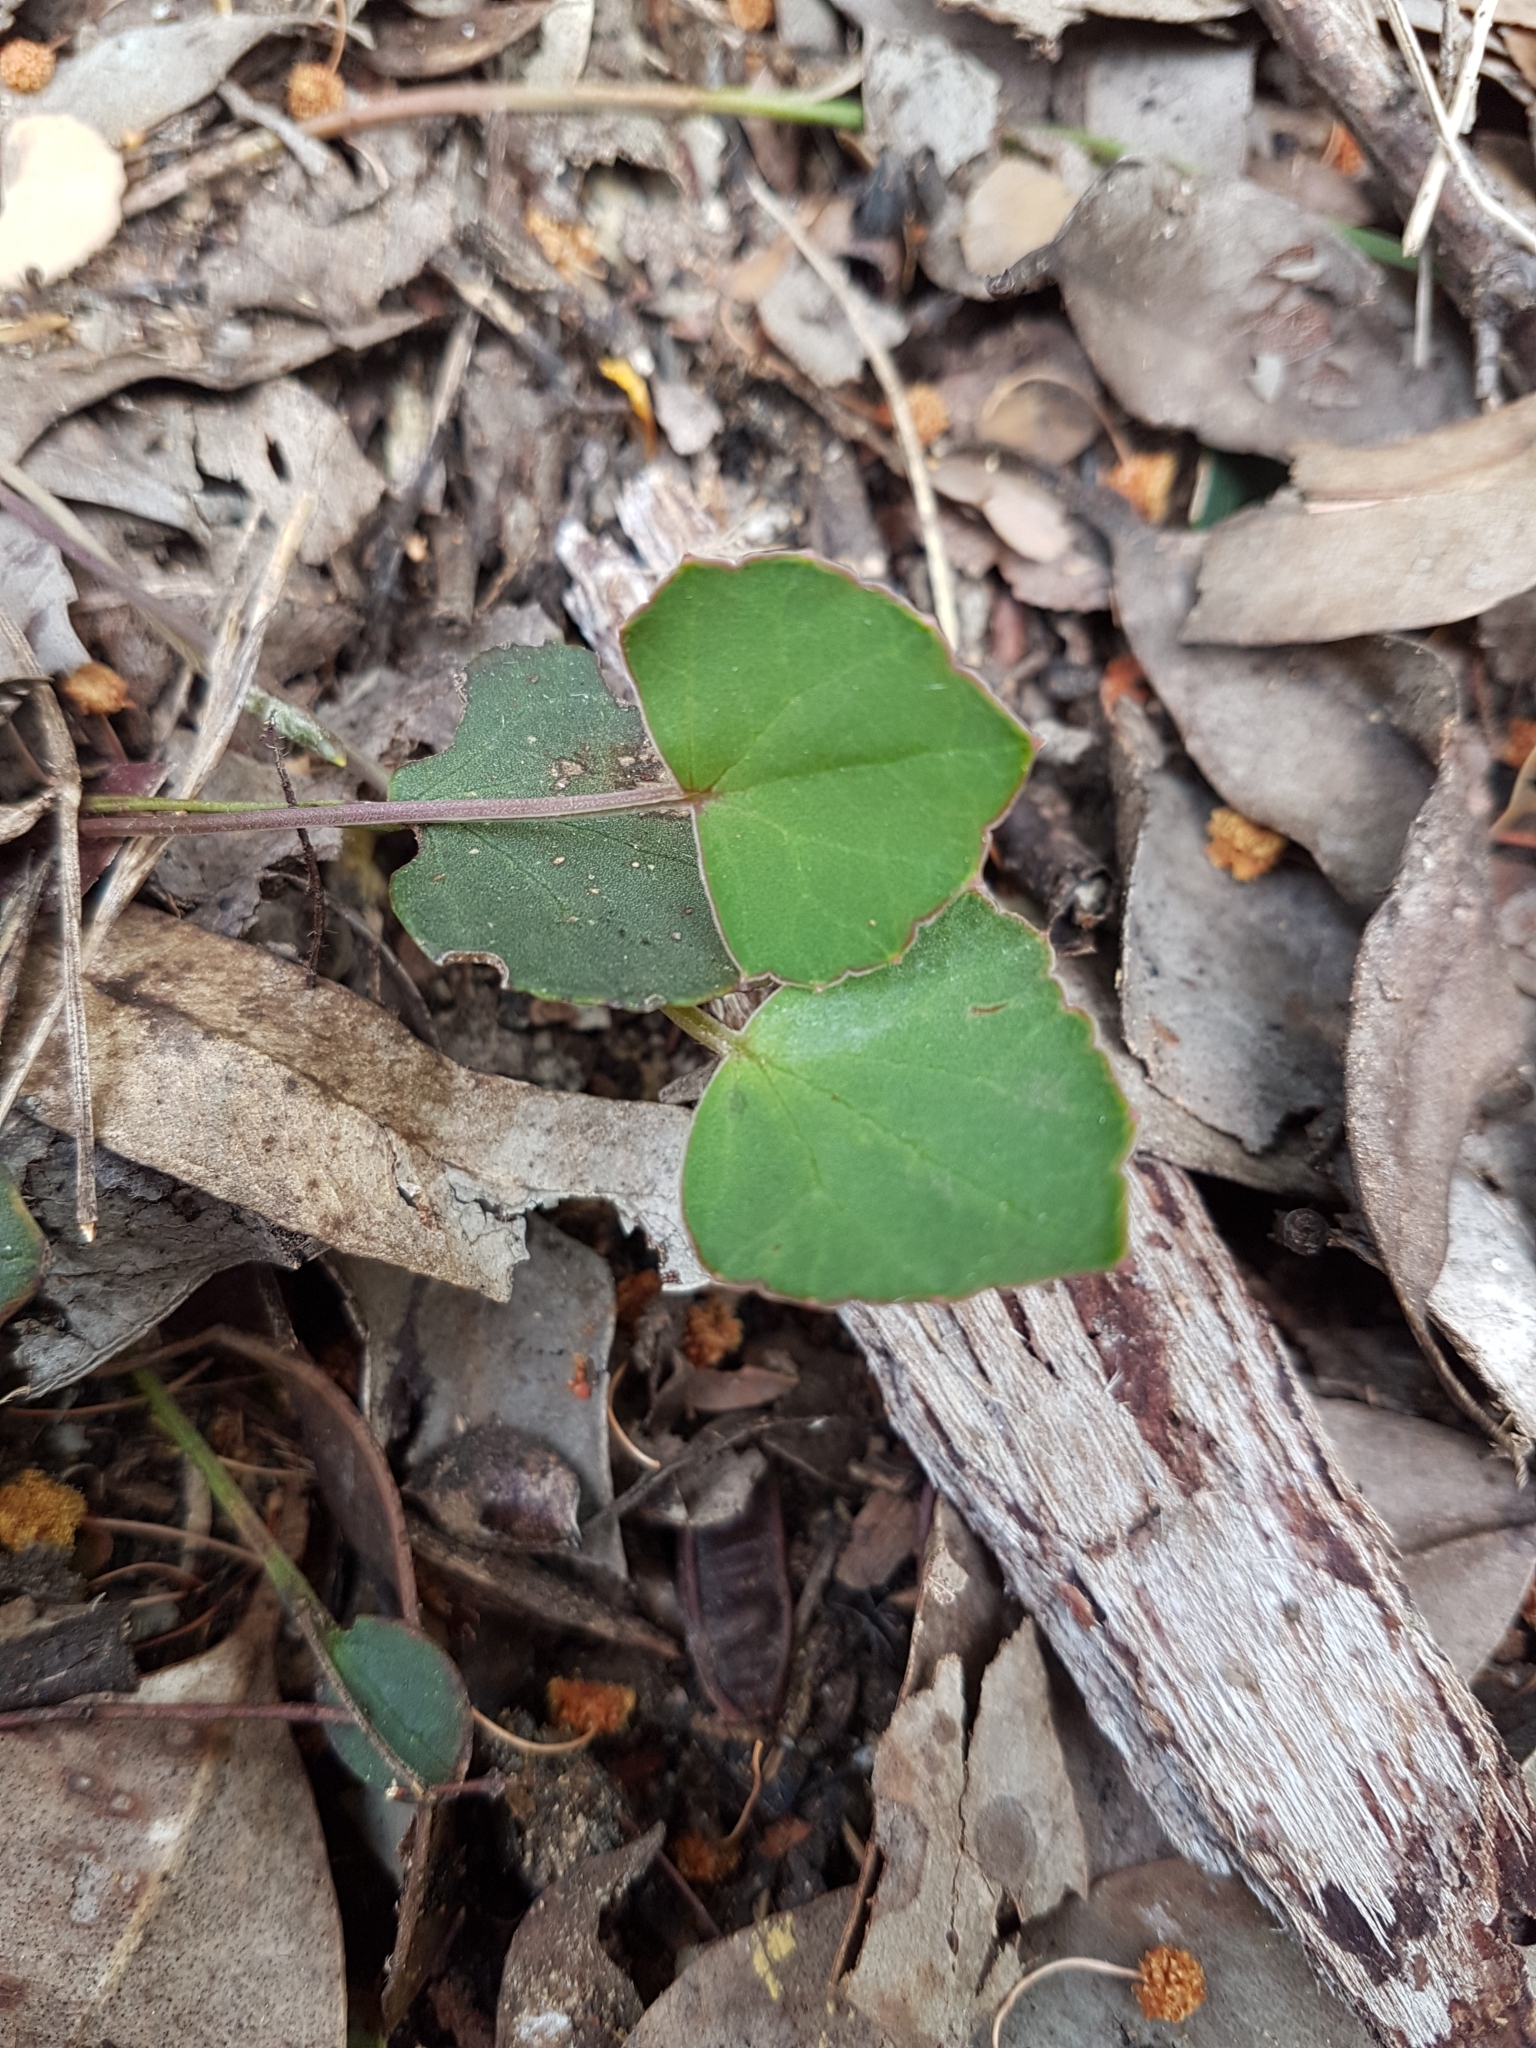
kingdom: Plantae
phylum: Tracheophyta
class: Magnoliopsida
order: Apiales
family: Apiaceae
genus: Pentapeltis
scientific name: Pentapeltis silvatica
